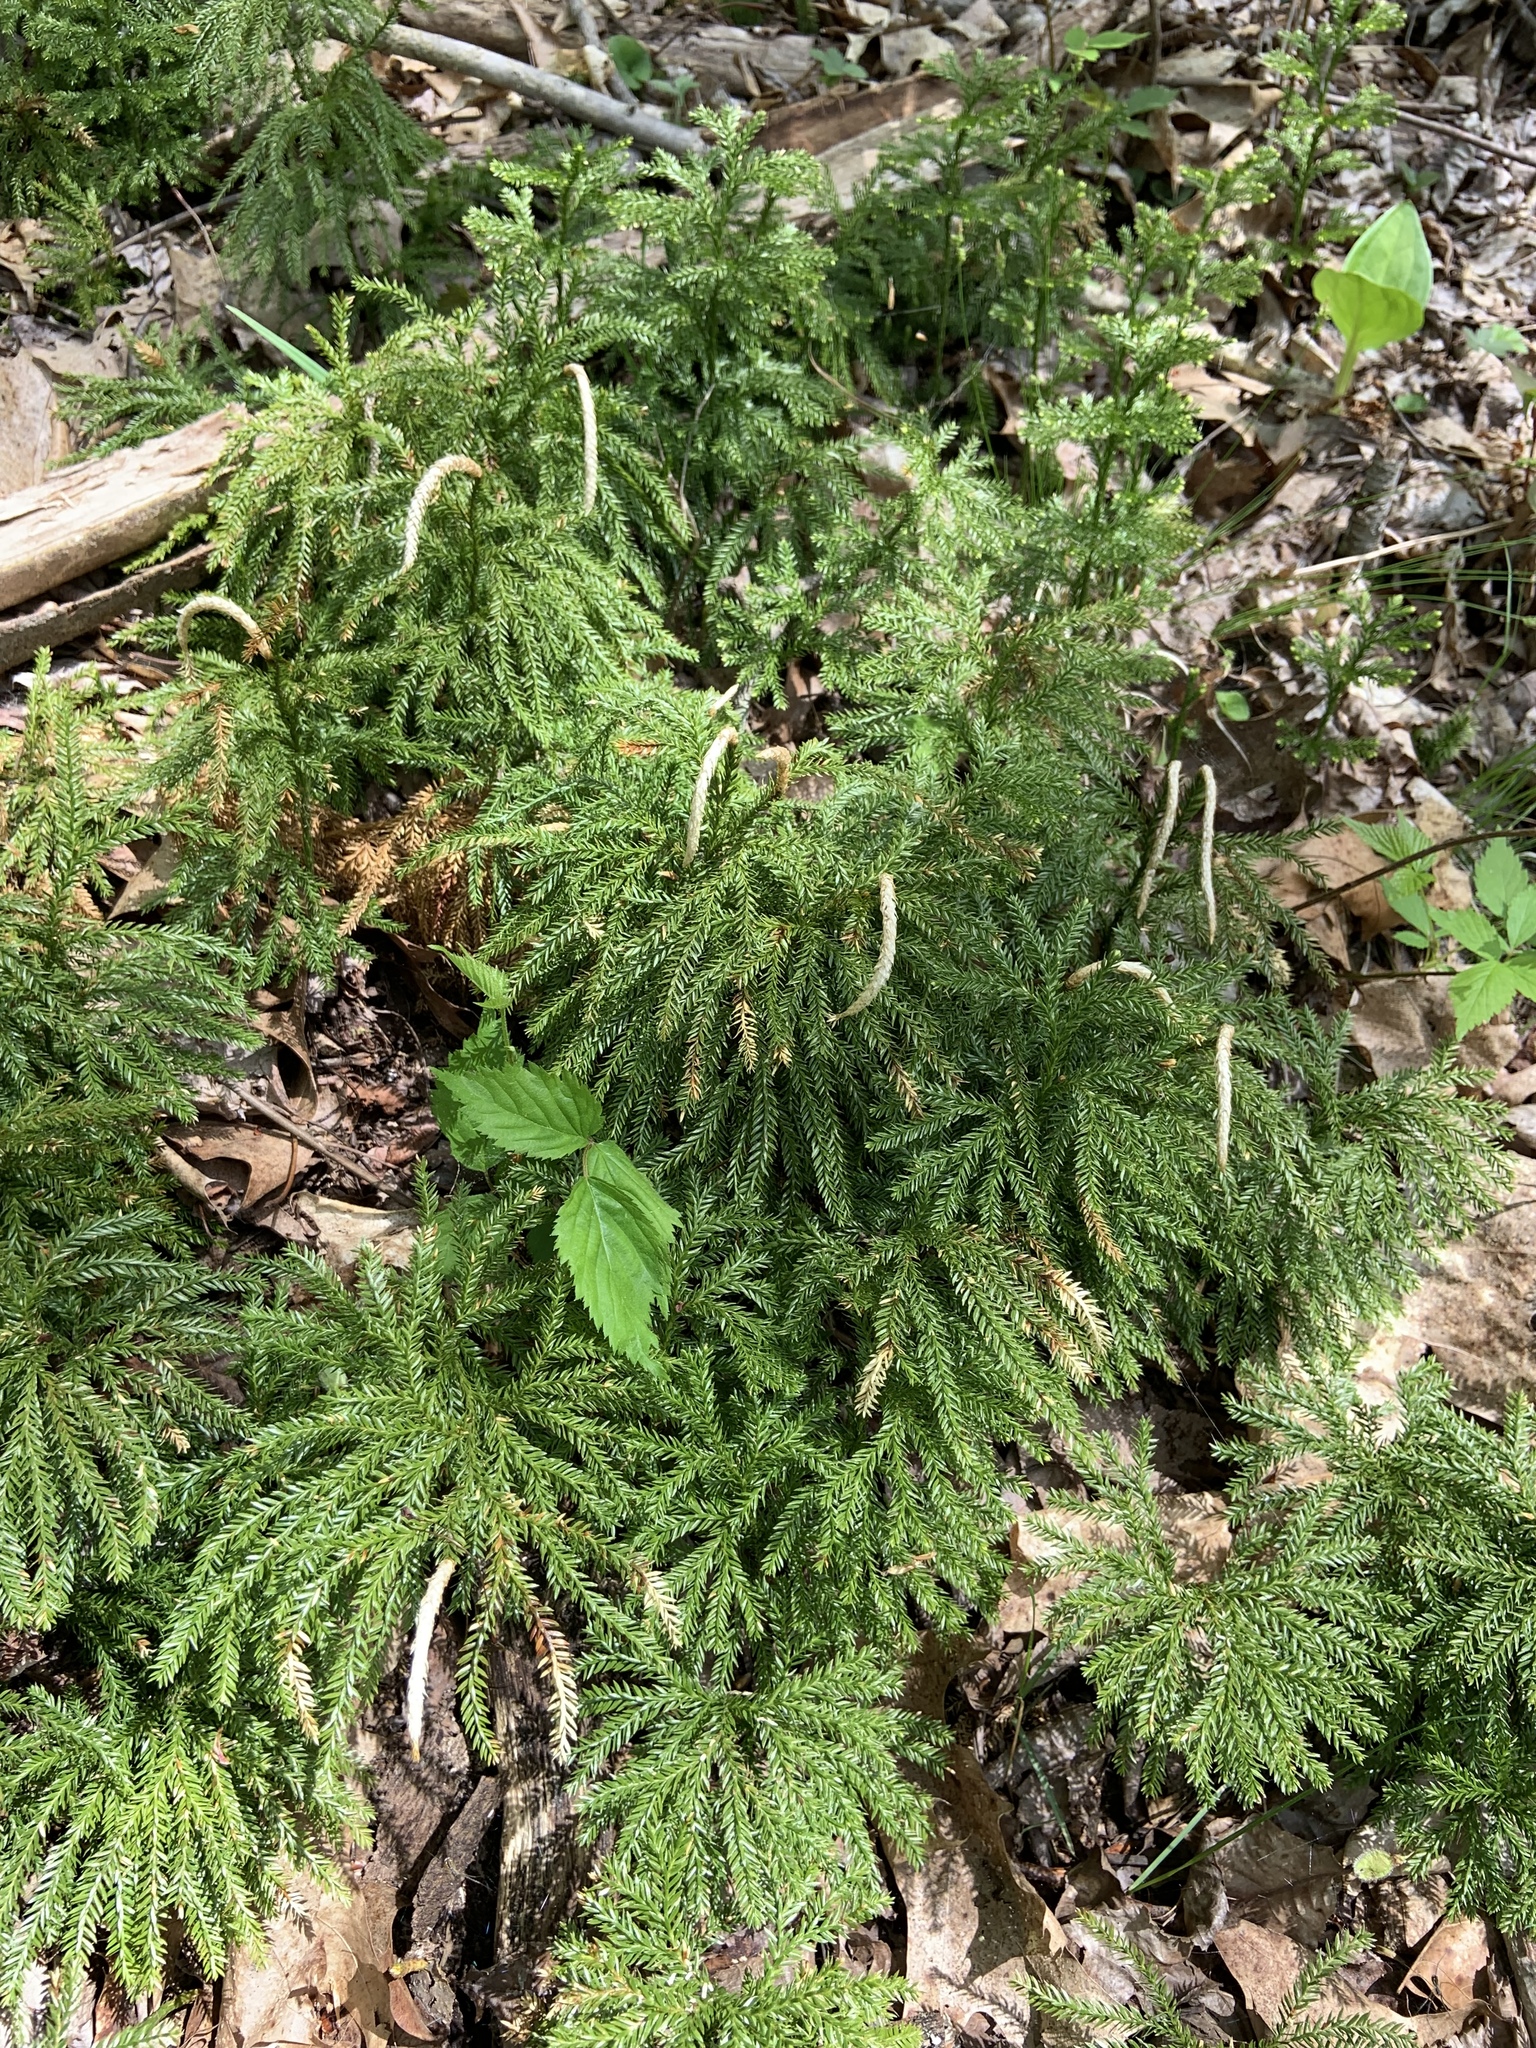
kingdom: Plantae
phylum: Tracheophyta
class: Lycopodiopsida
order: Lycopodiales
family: Lycopodiaceae
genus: Dendrolycopodium
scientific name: Dendrolycopodium obscurum
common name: Common ground-pine
